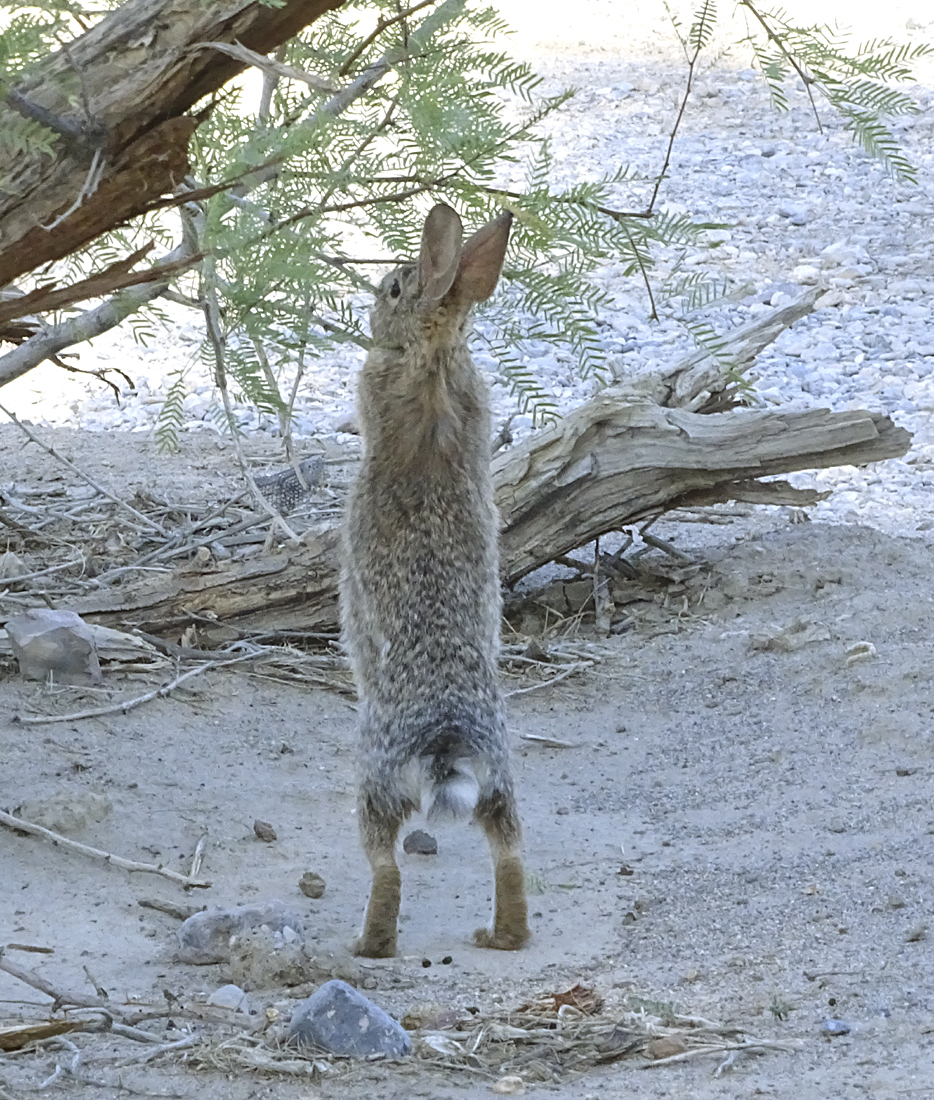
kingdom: Animalia
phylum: Chordata
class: Mammalia
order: Lagomorpha
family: Leporidae
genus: Sylvilagus
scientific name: Sylvilagus audubonii
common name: Desert cottontail
